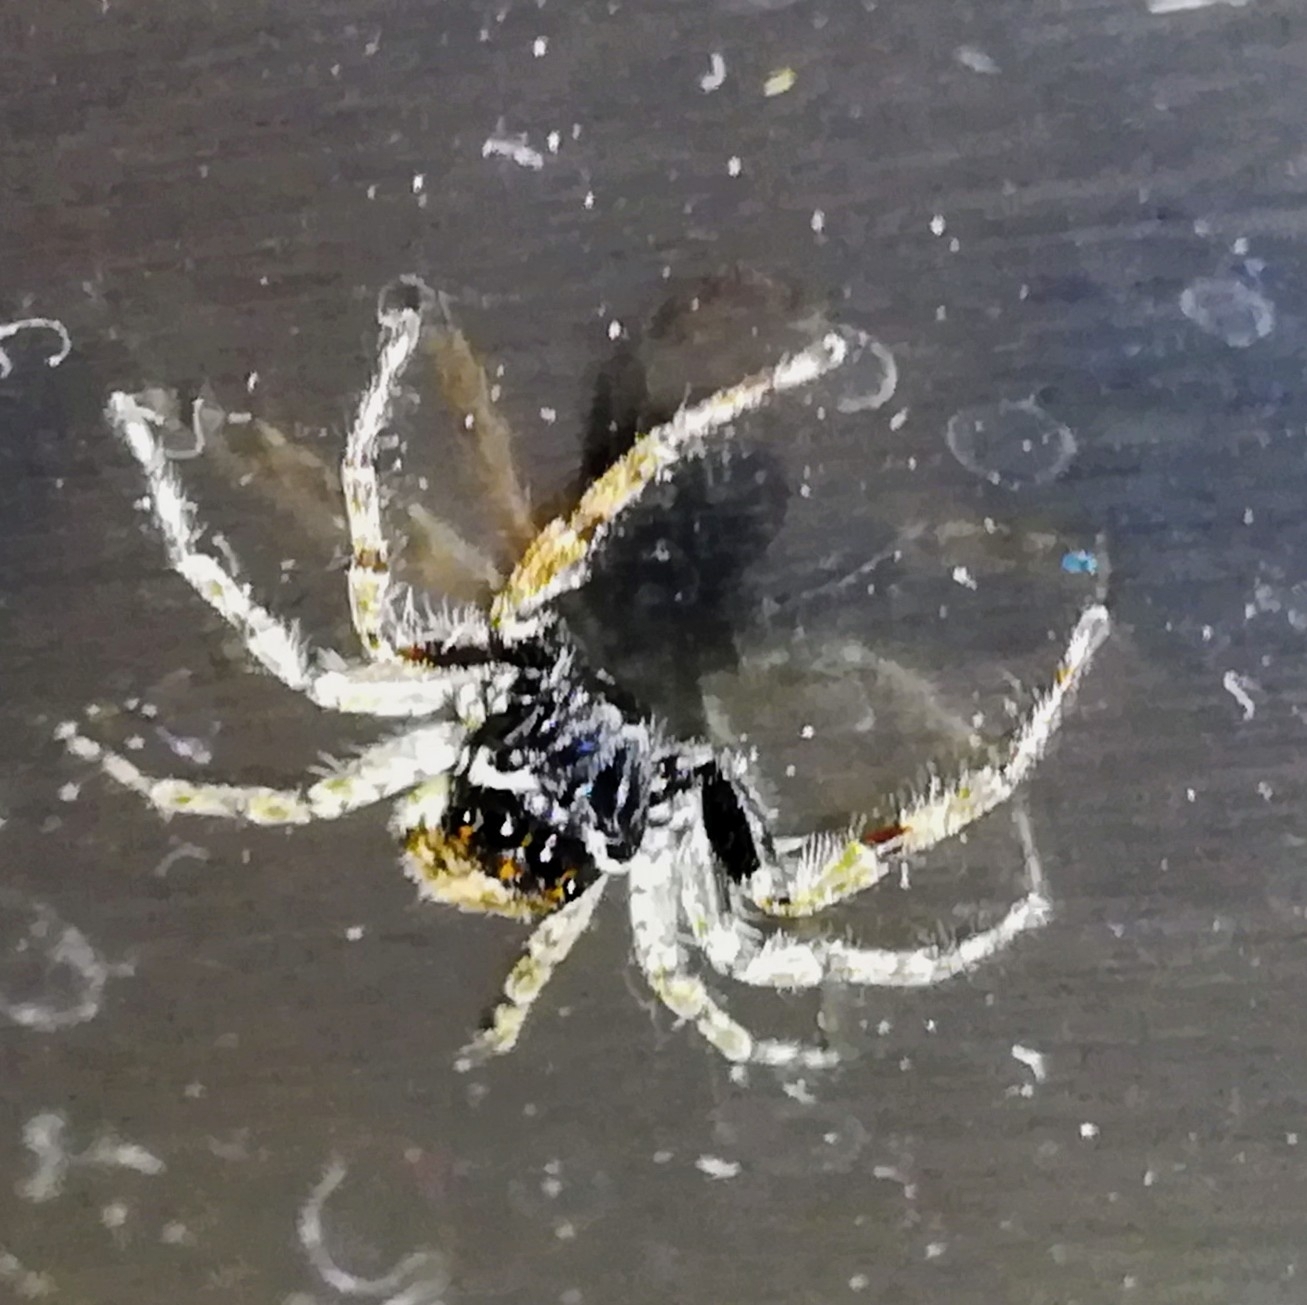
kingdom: Animalia
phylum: Arthropoda
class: Arachnida
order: Araneae
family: Salticidae
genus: Menemerus
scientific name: Menemerus semilimbatus
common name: Jumping spider
